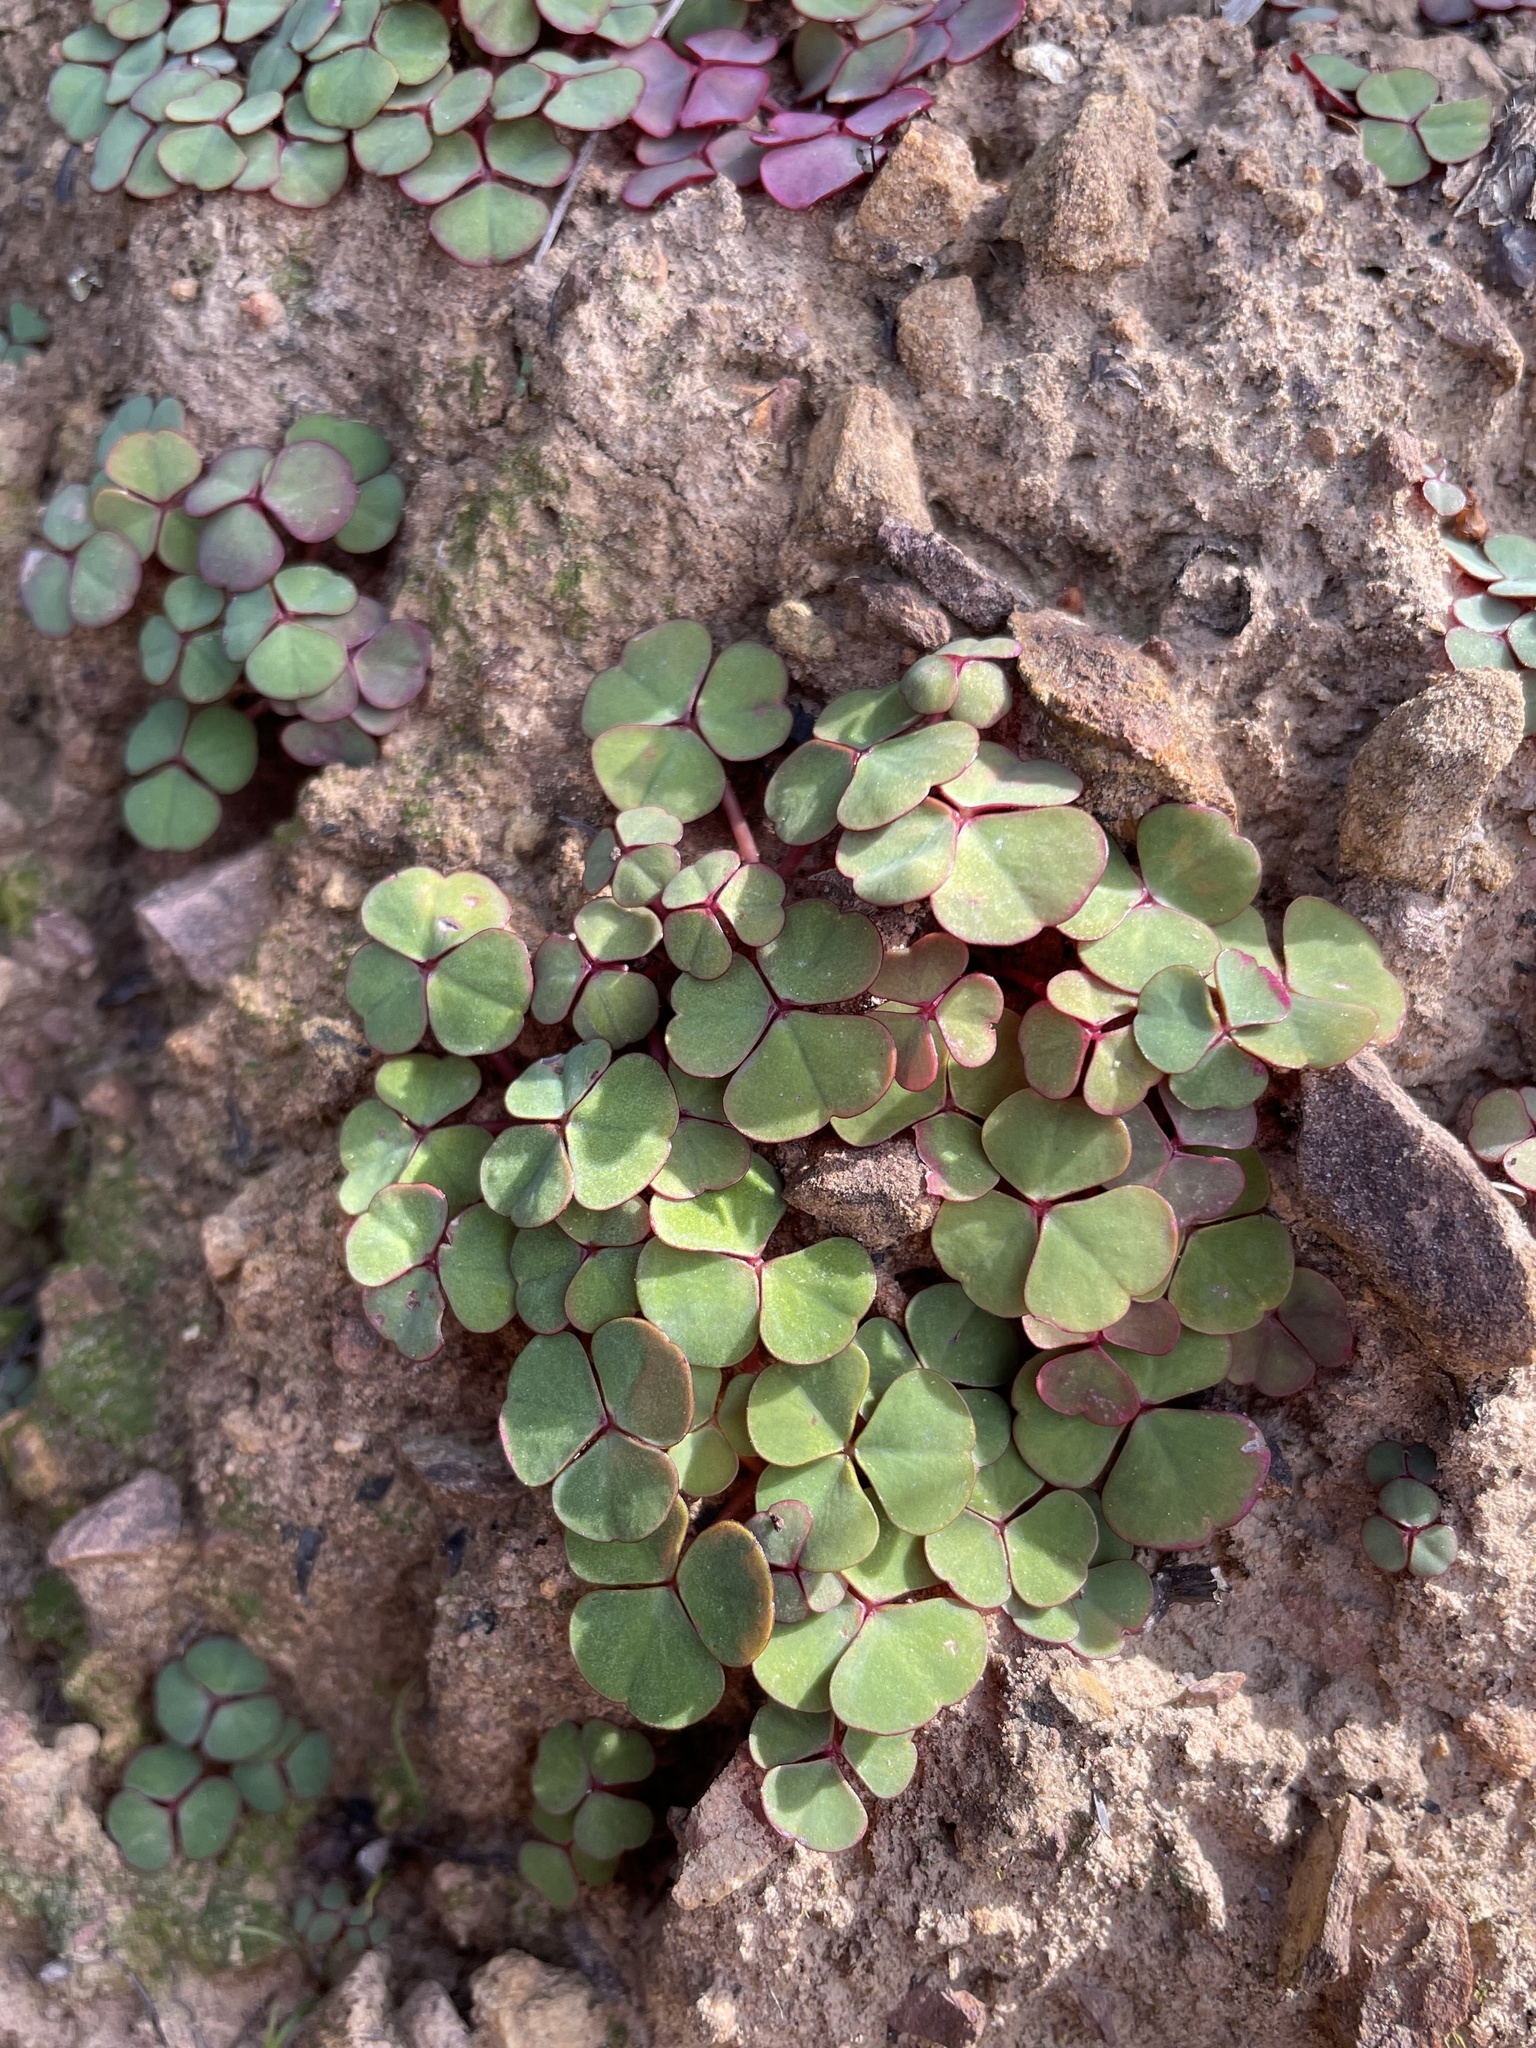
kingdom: Plantae
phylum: Tracheophyta
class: Magnoliopsida
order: Oxalidales
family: Oxalidaceae
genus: Oxalis
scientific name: Oxalis commutata
